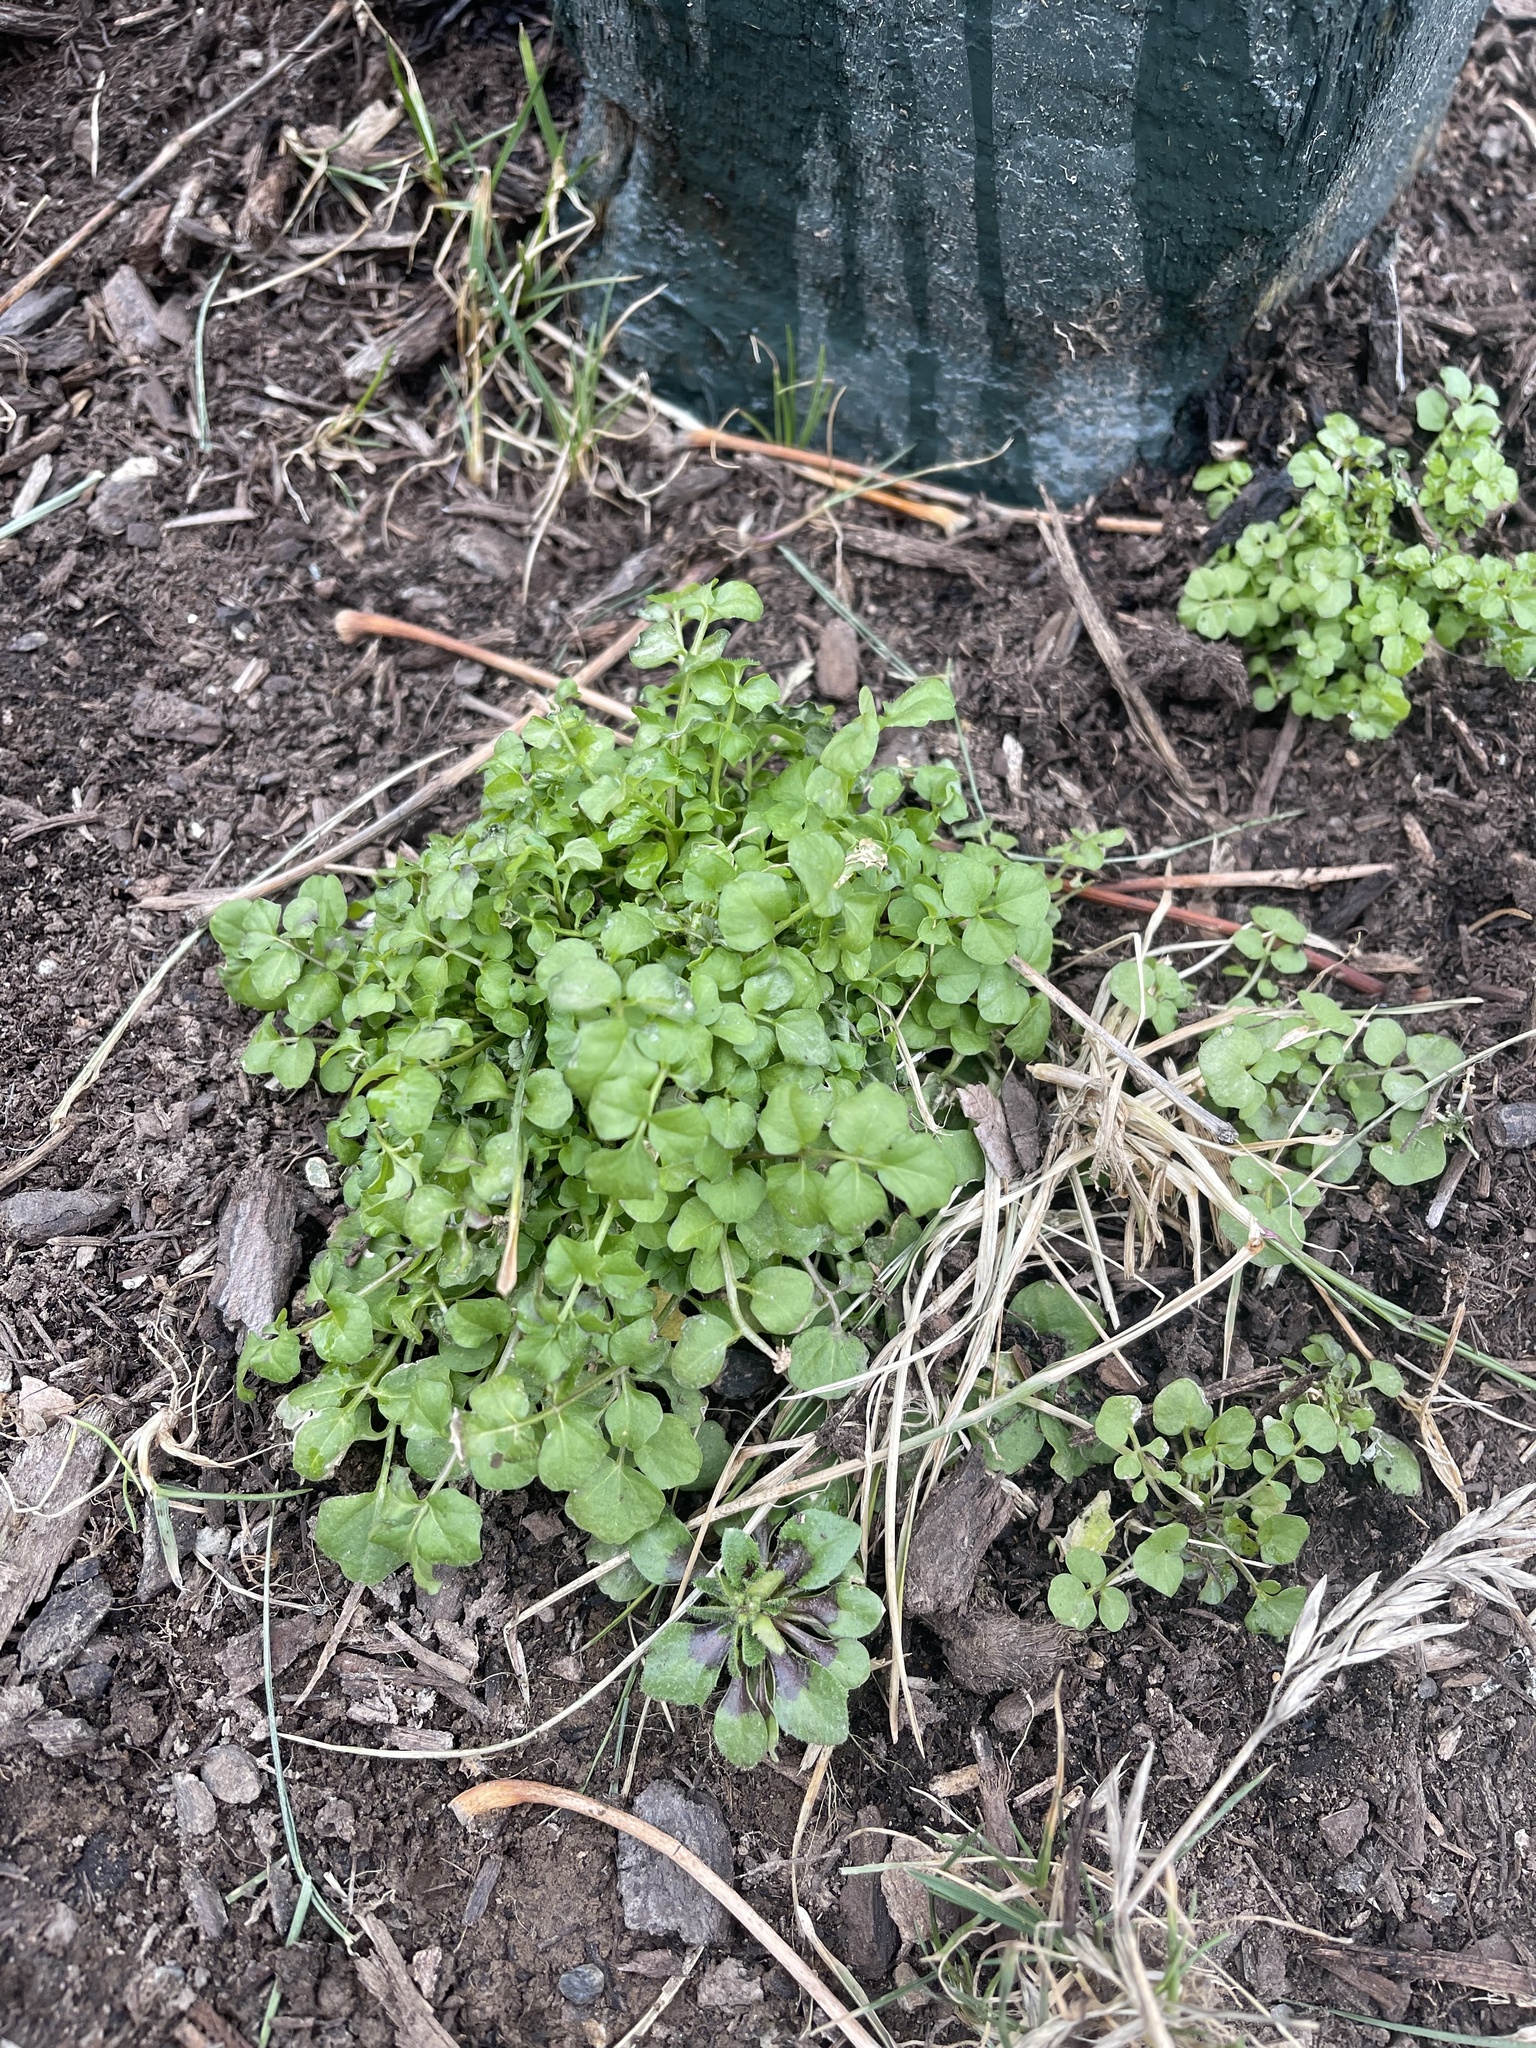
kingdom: Plantae
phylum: Tracheophyta
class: Magnoliopsida
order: Brassicales
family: Brassicaceae
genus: Cardamine
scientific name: Cardamine hirsuta
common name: Hairy bittercress
